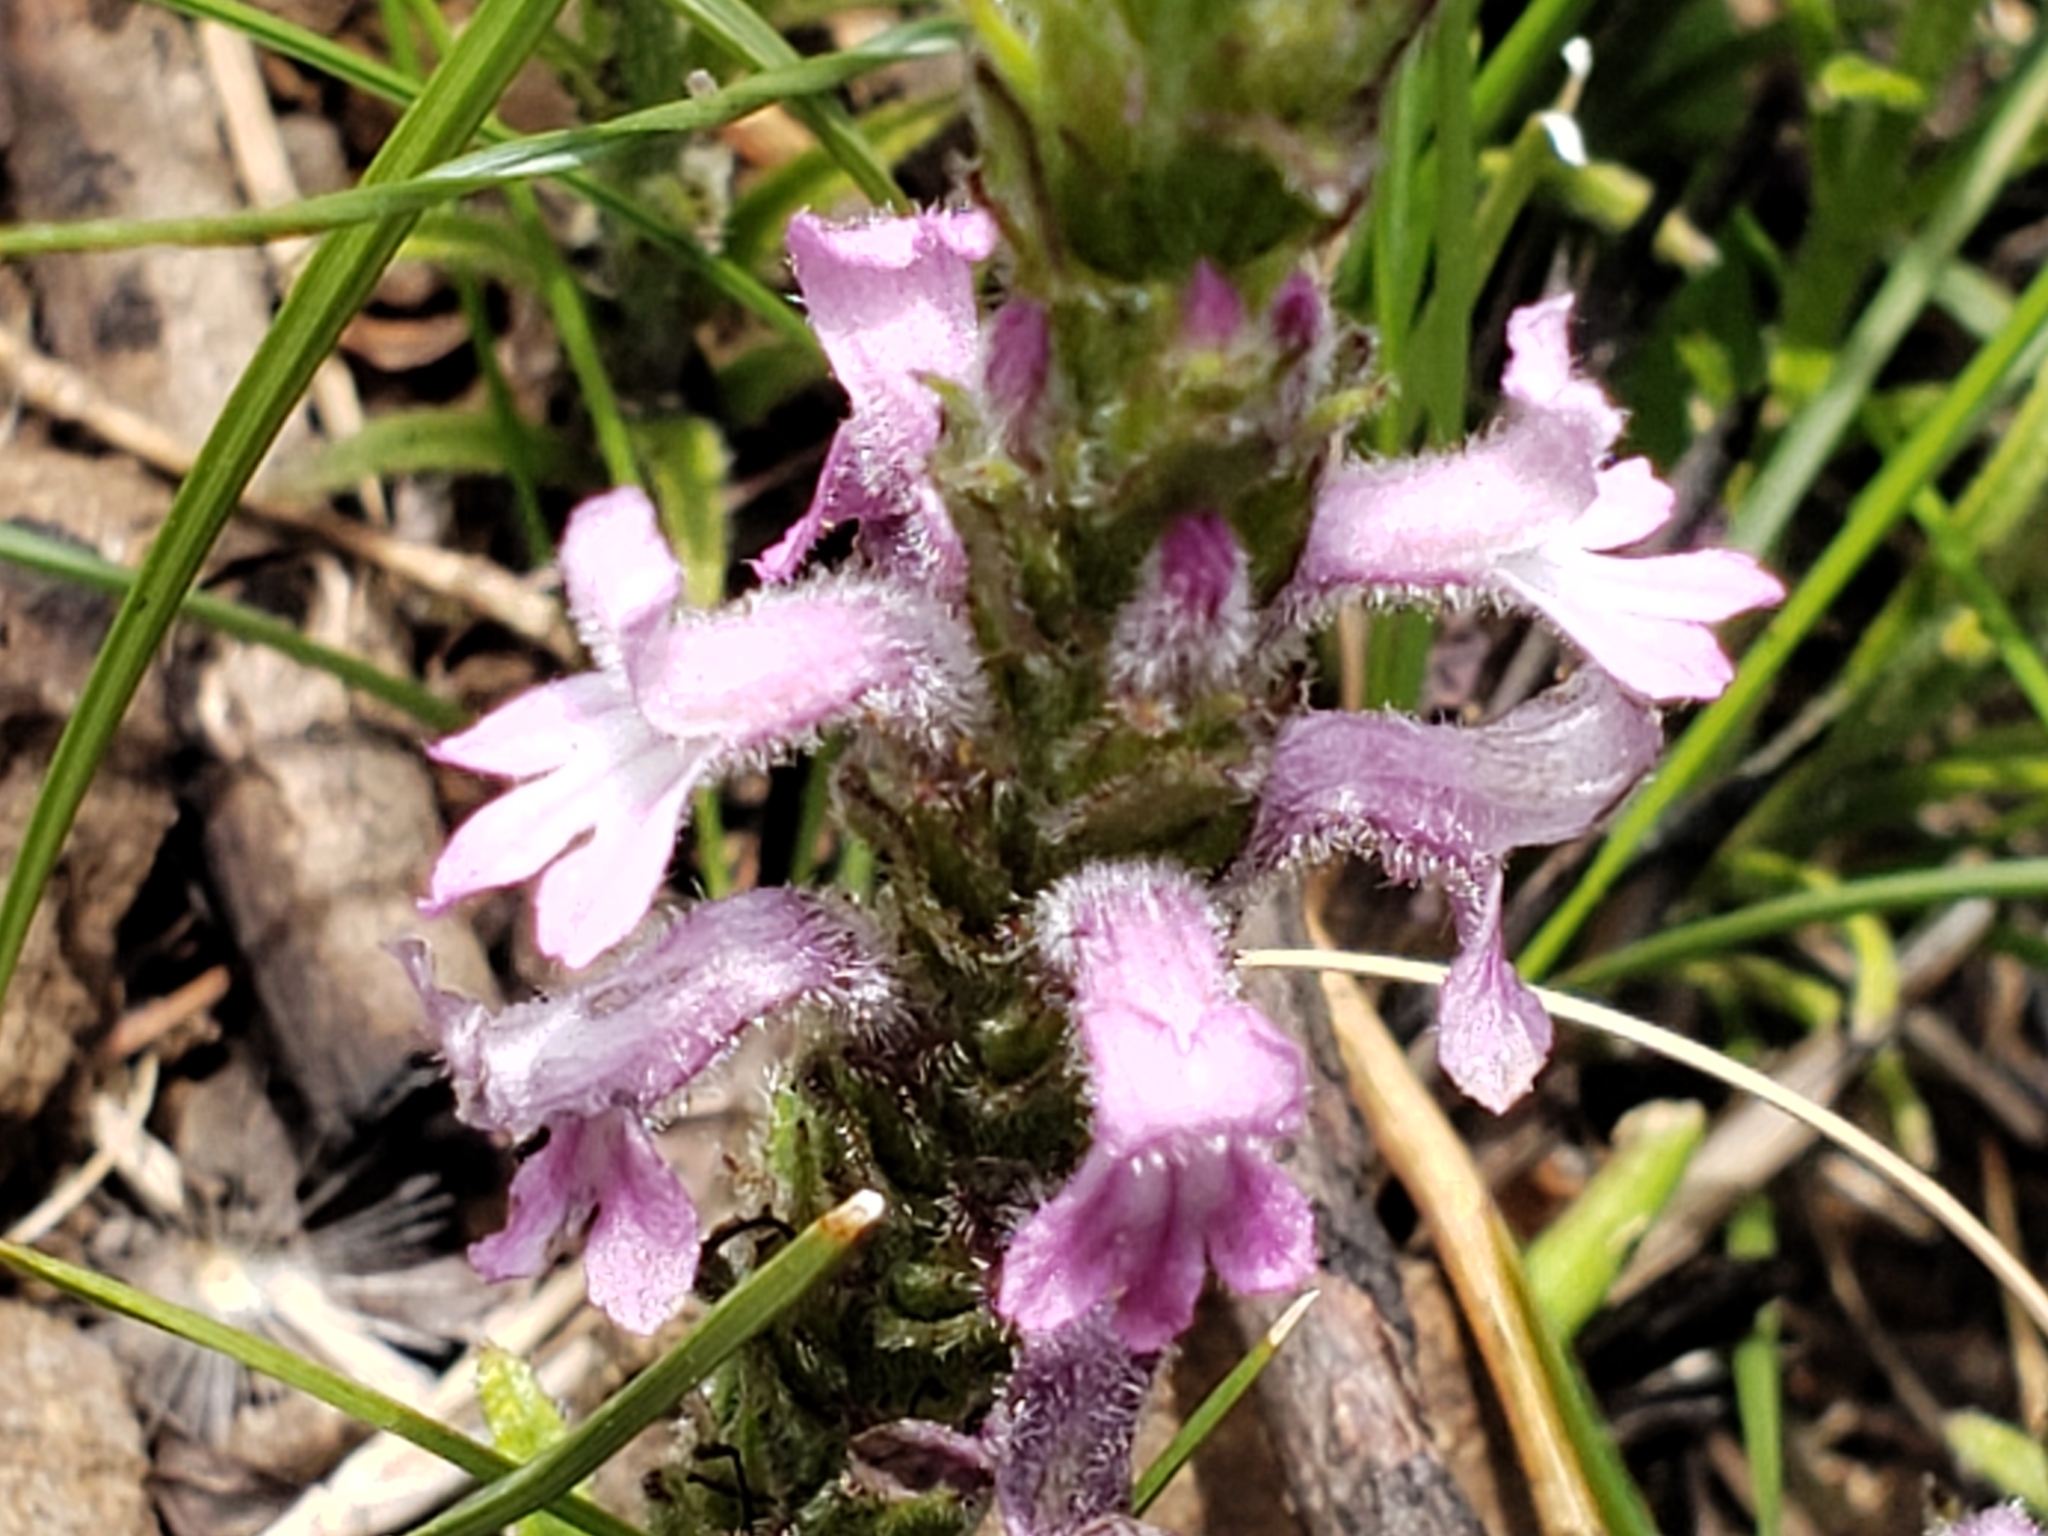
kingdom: Plantae
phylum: Tracheophyta
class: Magnoliopsida
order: Lamiales
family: Orobanchaceae
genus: Striga
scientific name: Striga bilabiata
